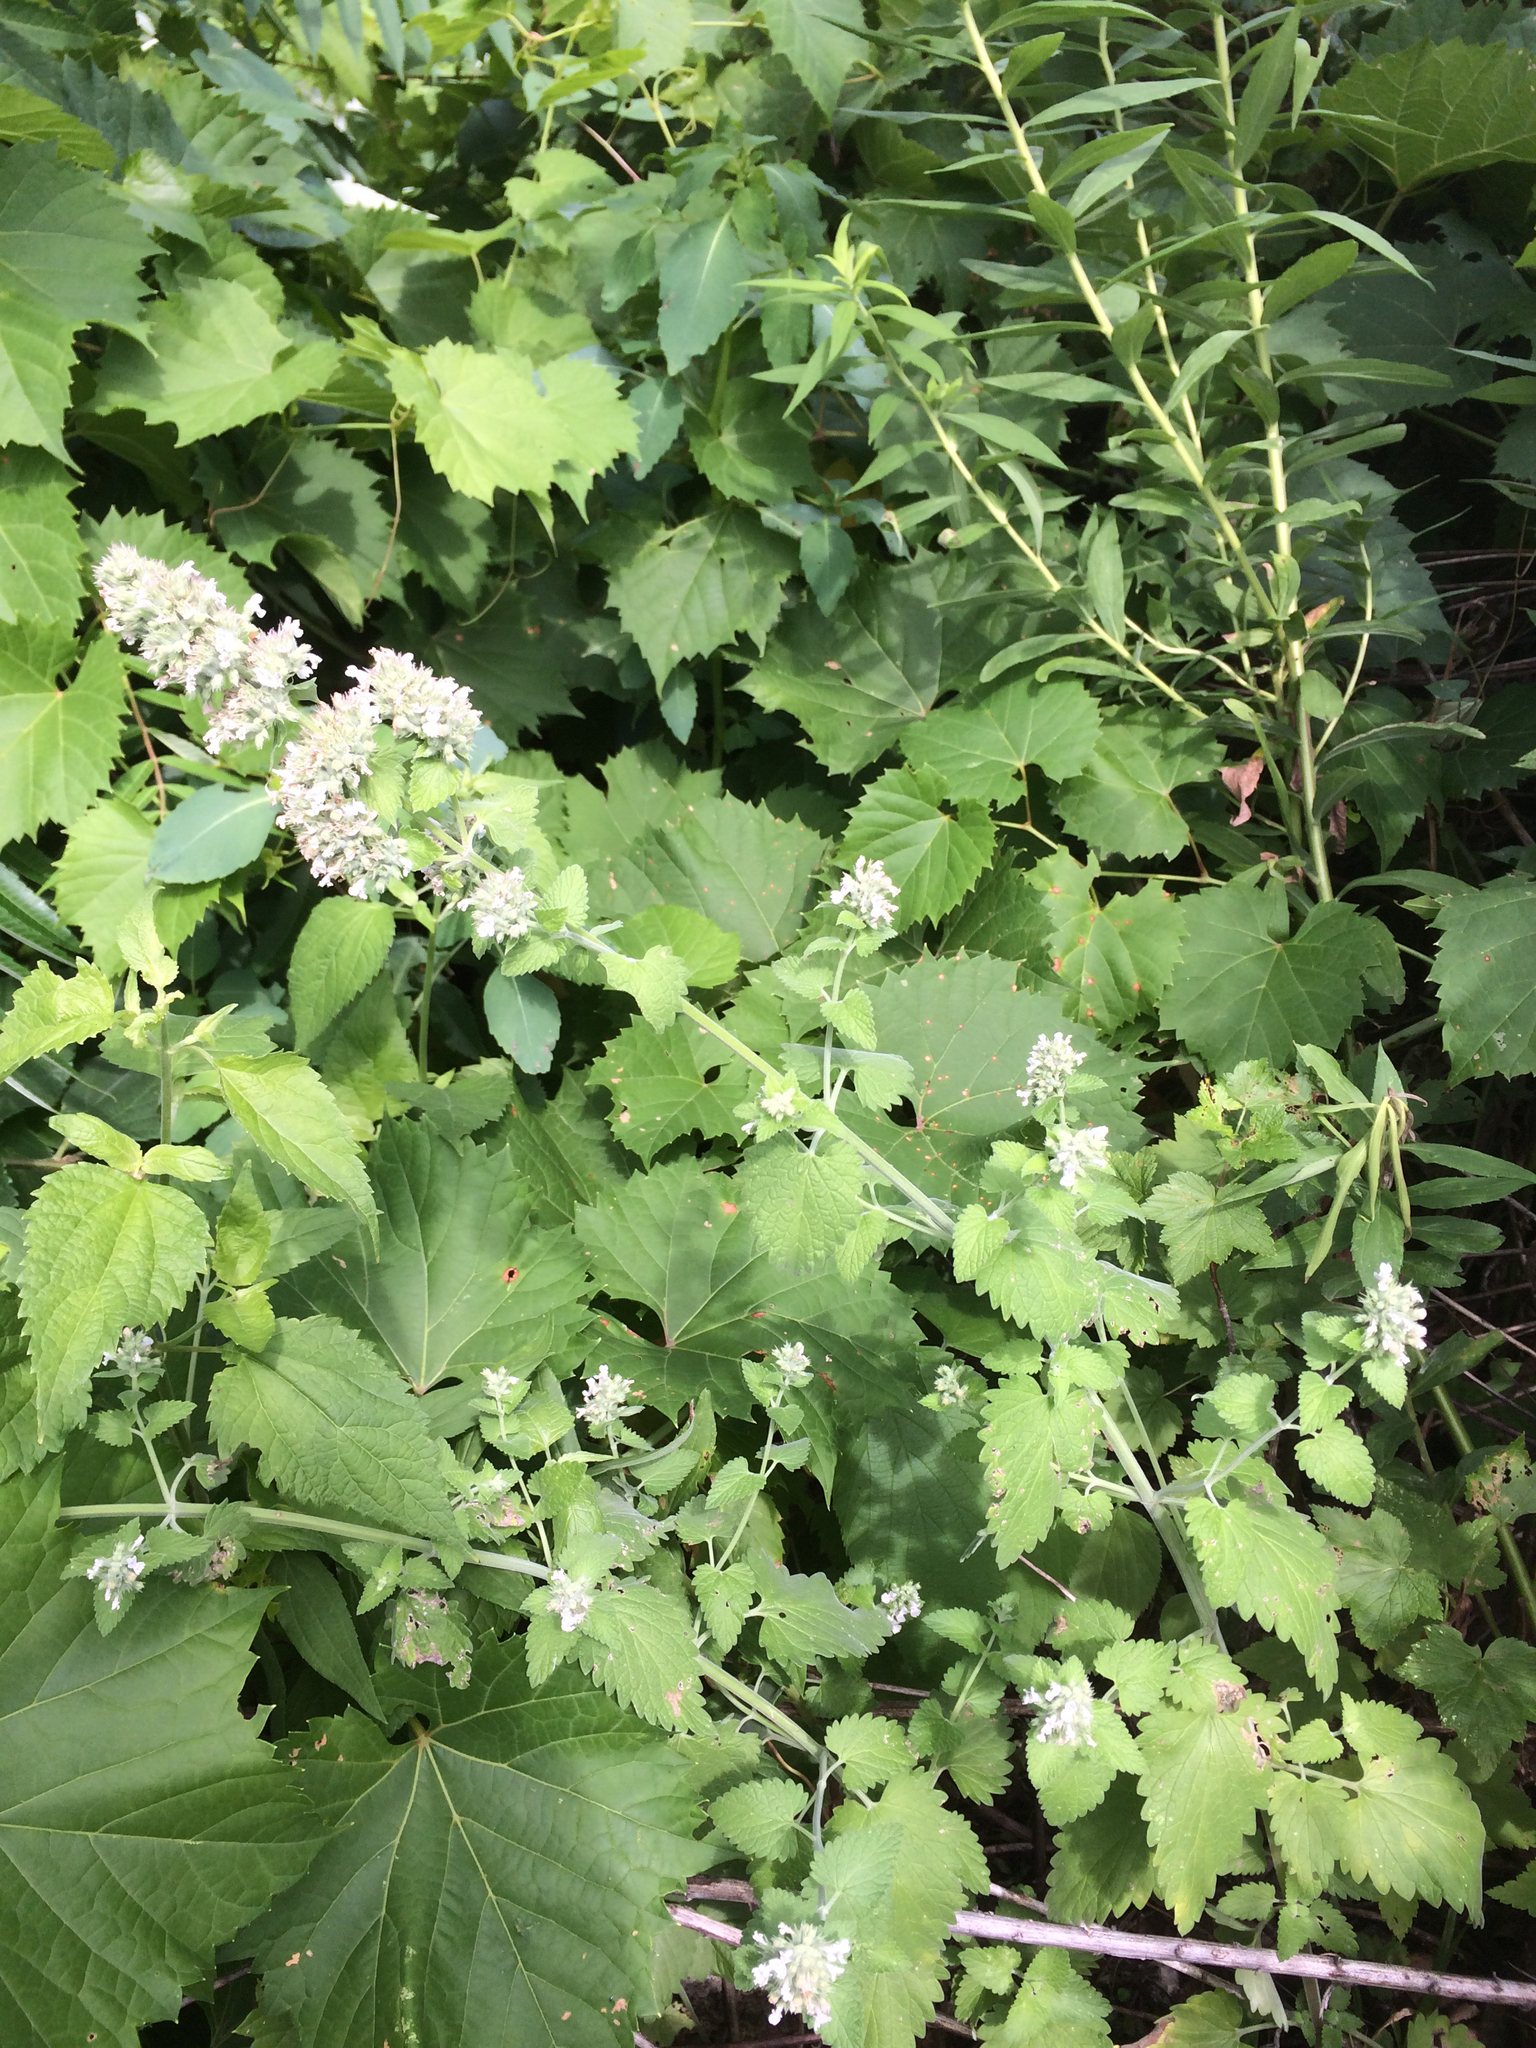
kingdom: Plantae
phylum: Tracheophyta
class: Magnoliopsida
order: Lamiales
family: Lamiaceae
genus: Nepeta
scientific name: Nepeta cataria
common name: Catnip
